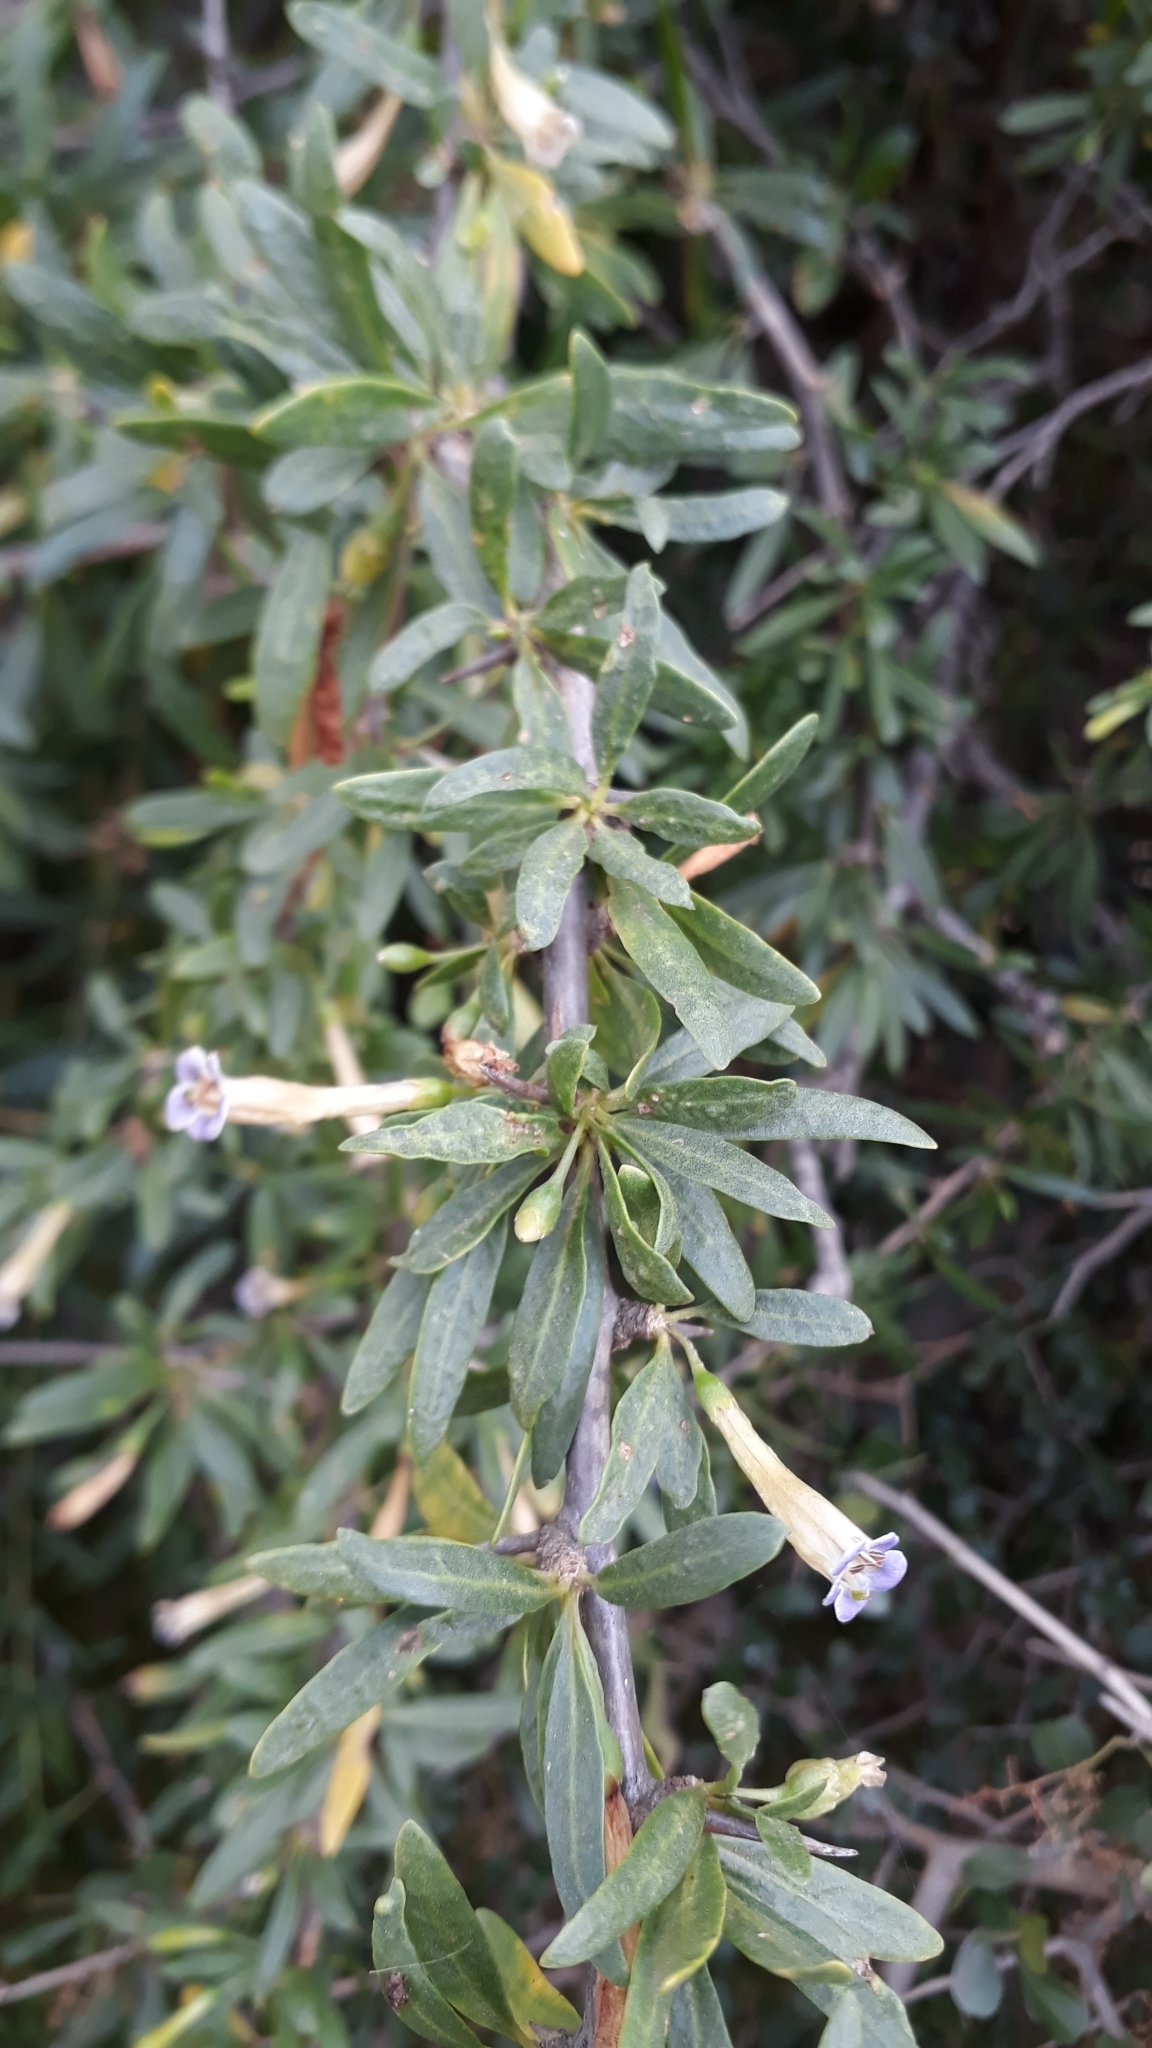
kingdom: Plantae
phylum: Tracheophyta
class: Magnoliopsida
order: Solanales
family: Solanaceae
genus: Lycium
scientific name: Lycium oxycarpum
